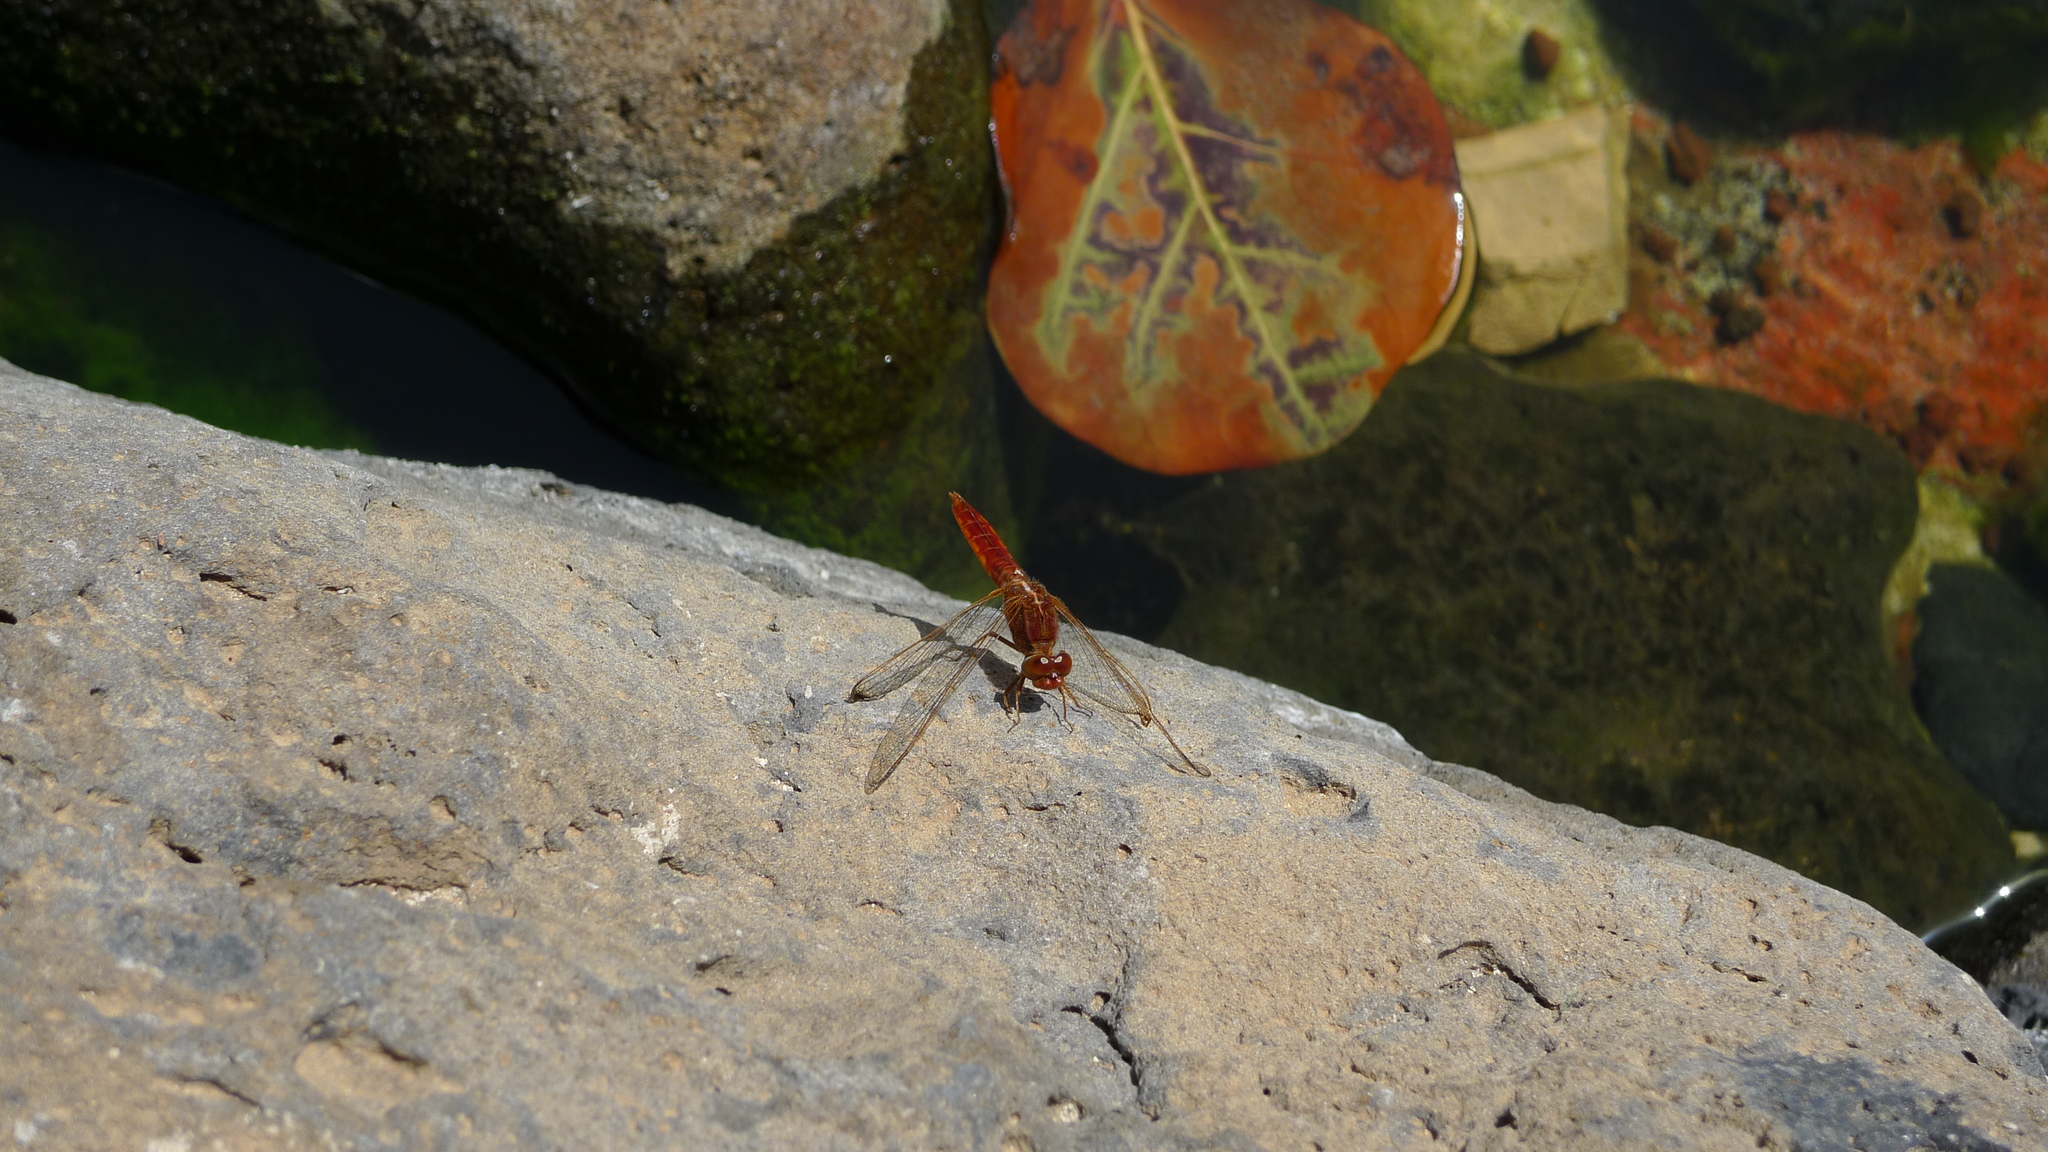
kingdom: Animalia
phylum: Arthropoda
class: Insecta
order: Odonata
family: Libellulidae
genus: Crocothemis
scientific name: Crocothemis erythraea
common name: Scarlet dragonfly
